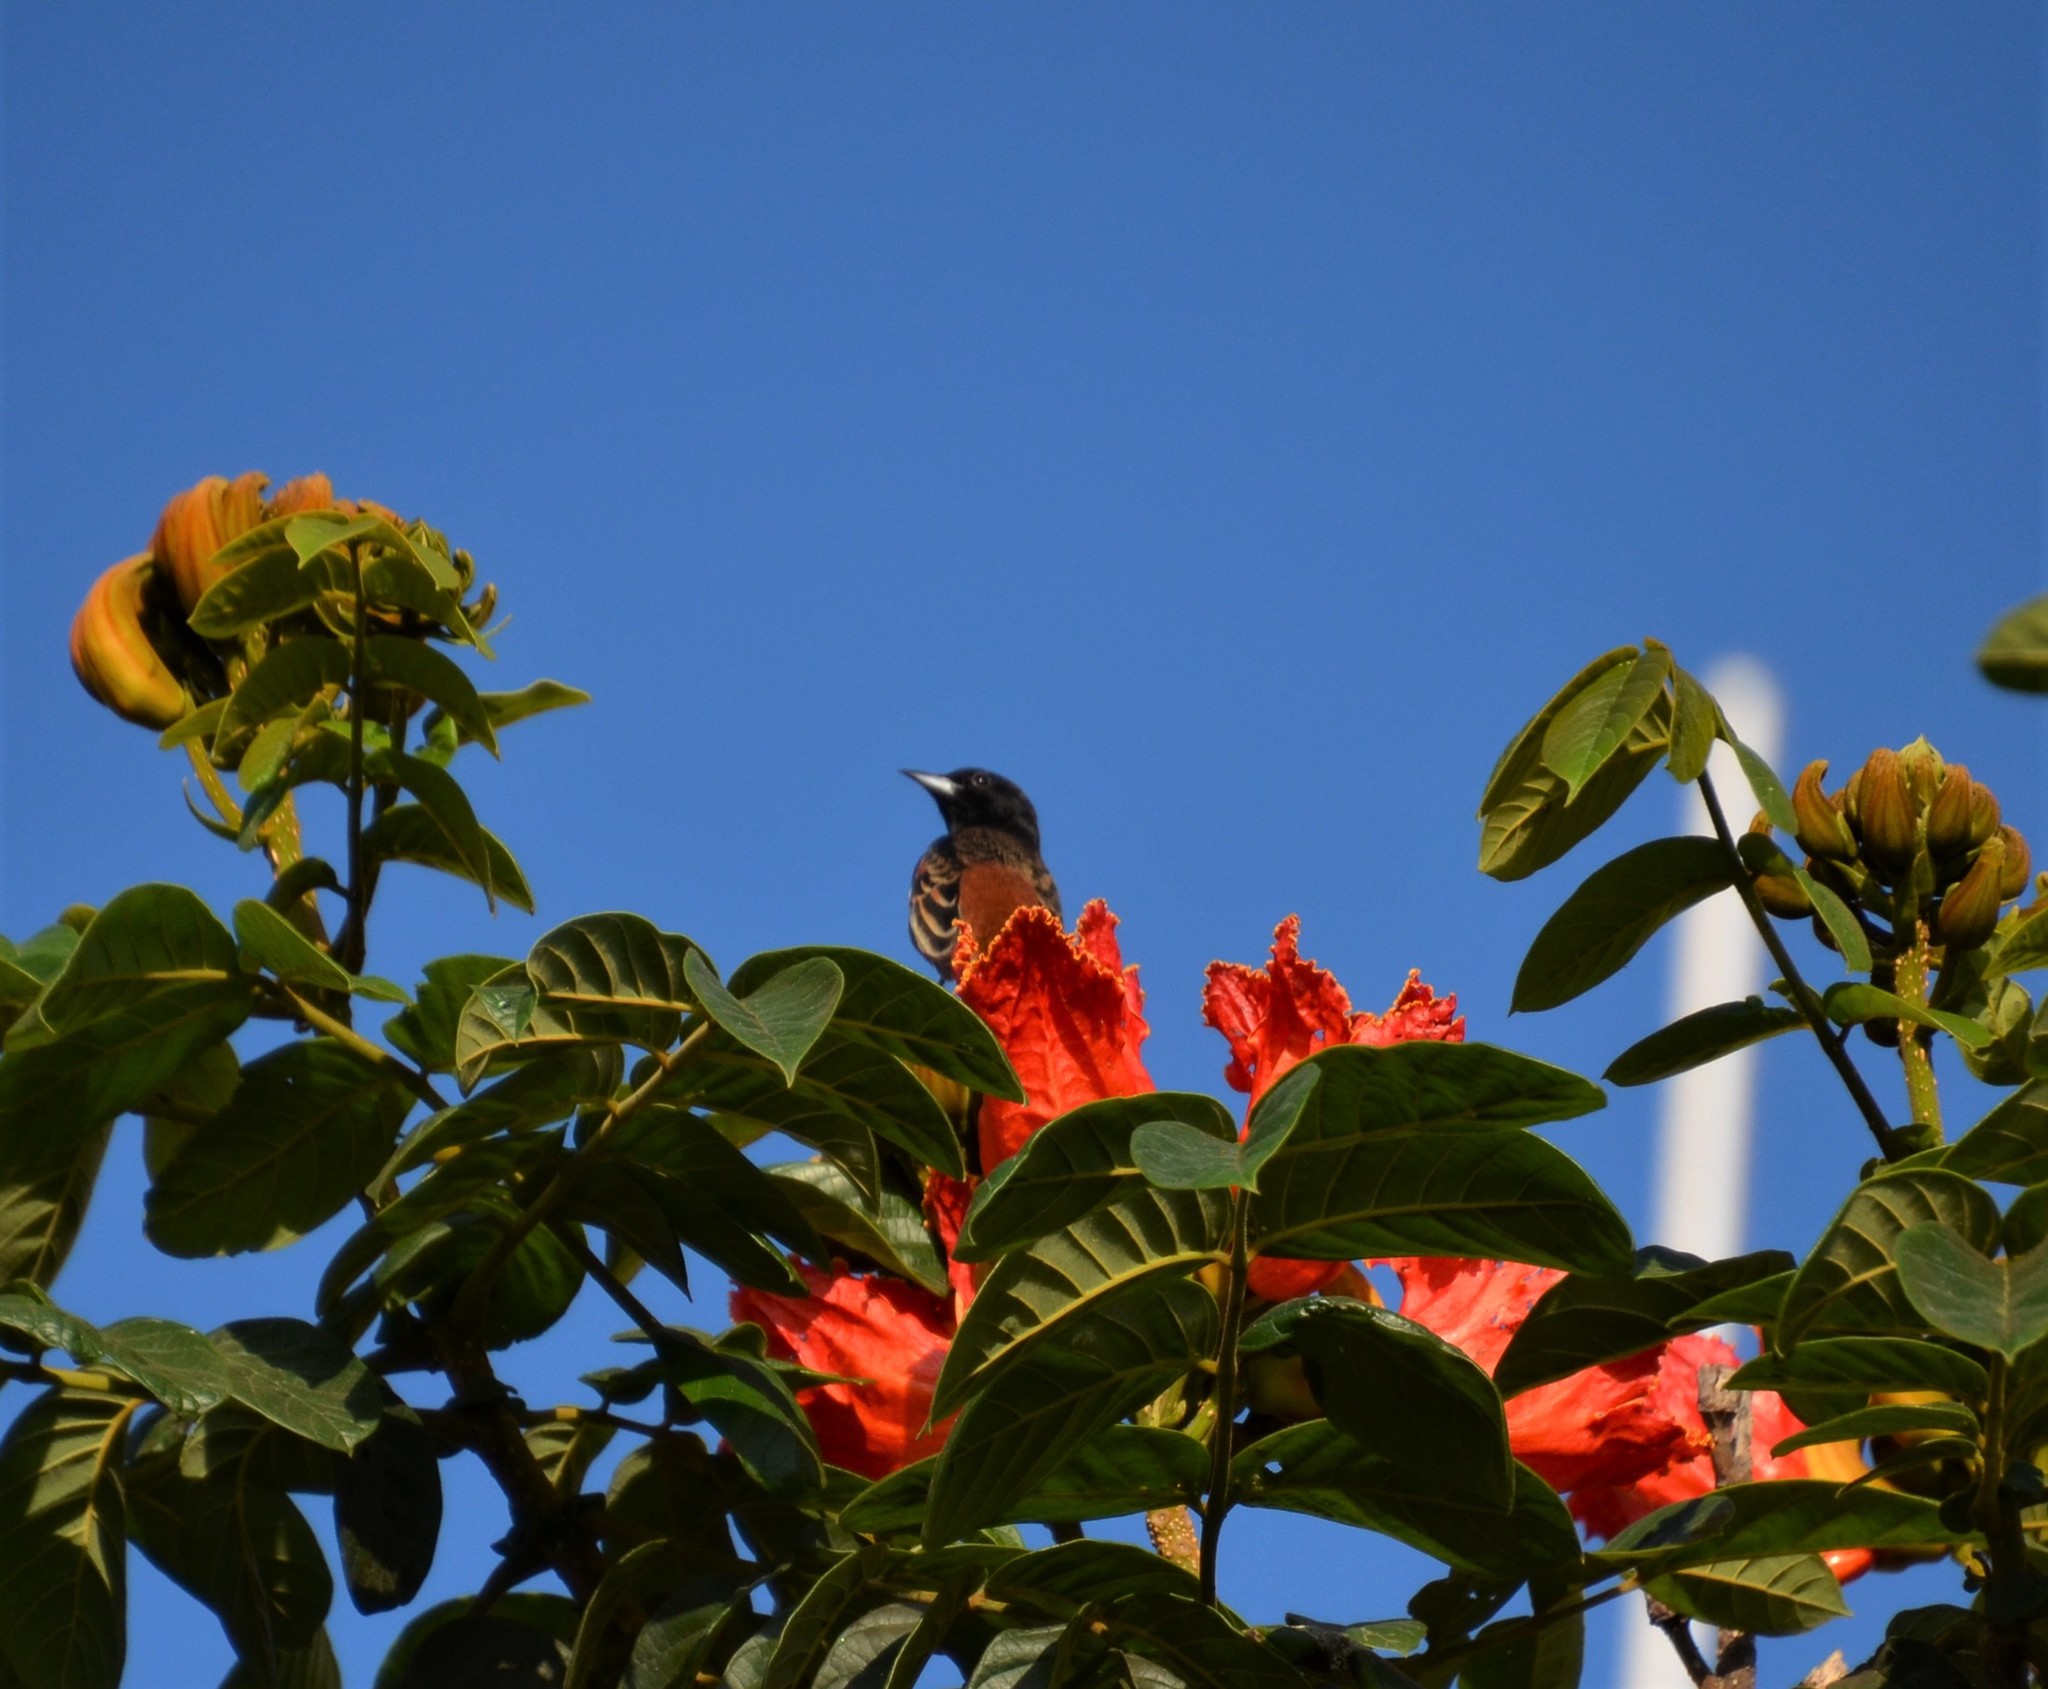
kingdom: Animalia
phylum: Chordata
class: Aves
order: Passeriformes
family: Icteridae
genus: Icterus
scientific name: Icterus spurius
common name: Orchard oriole
